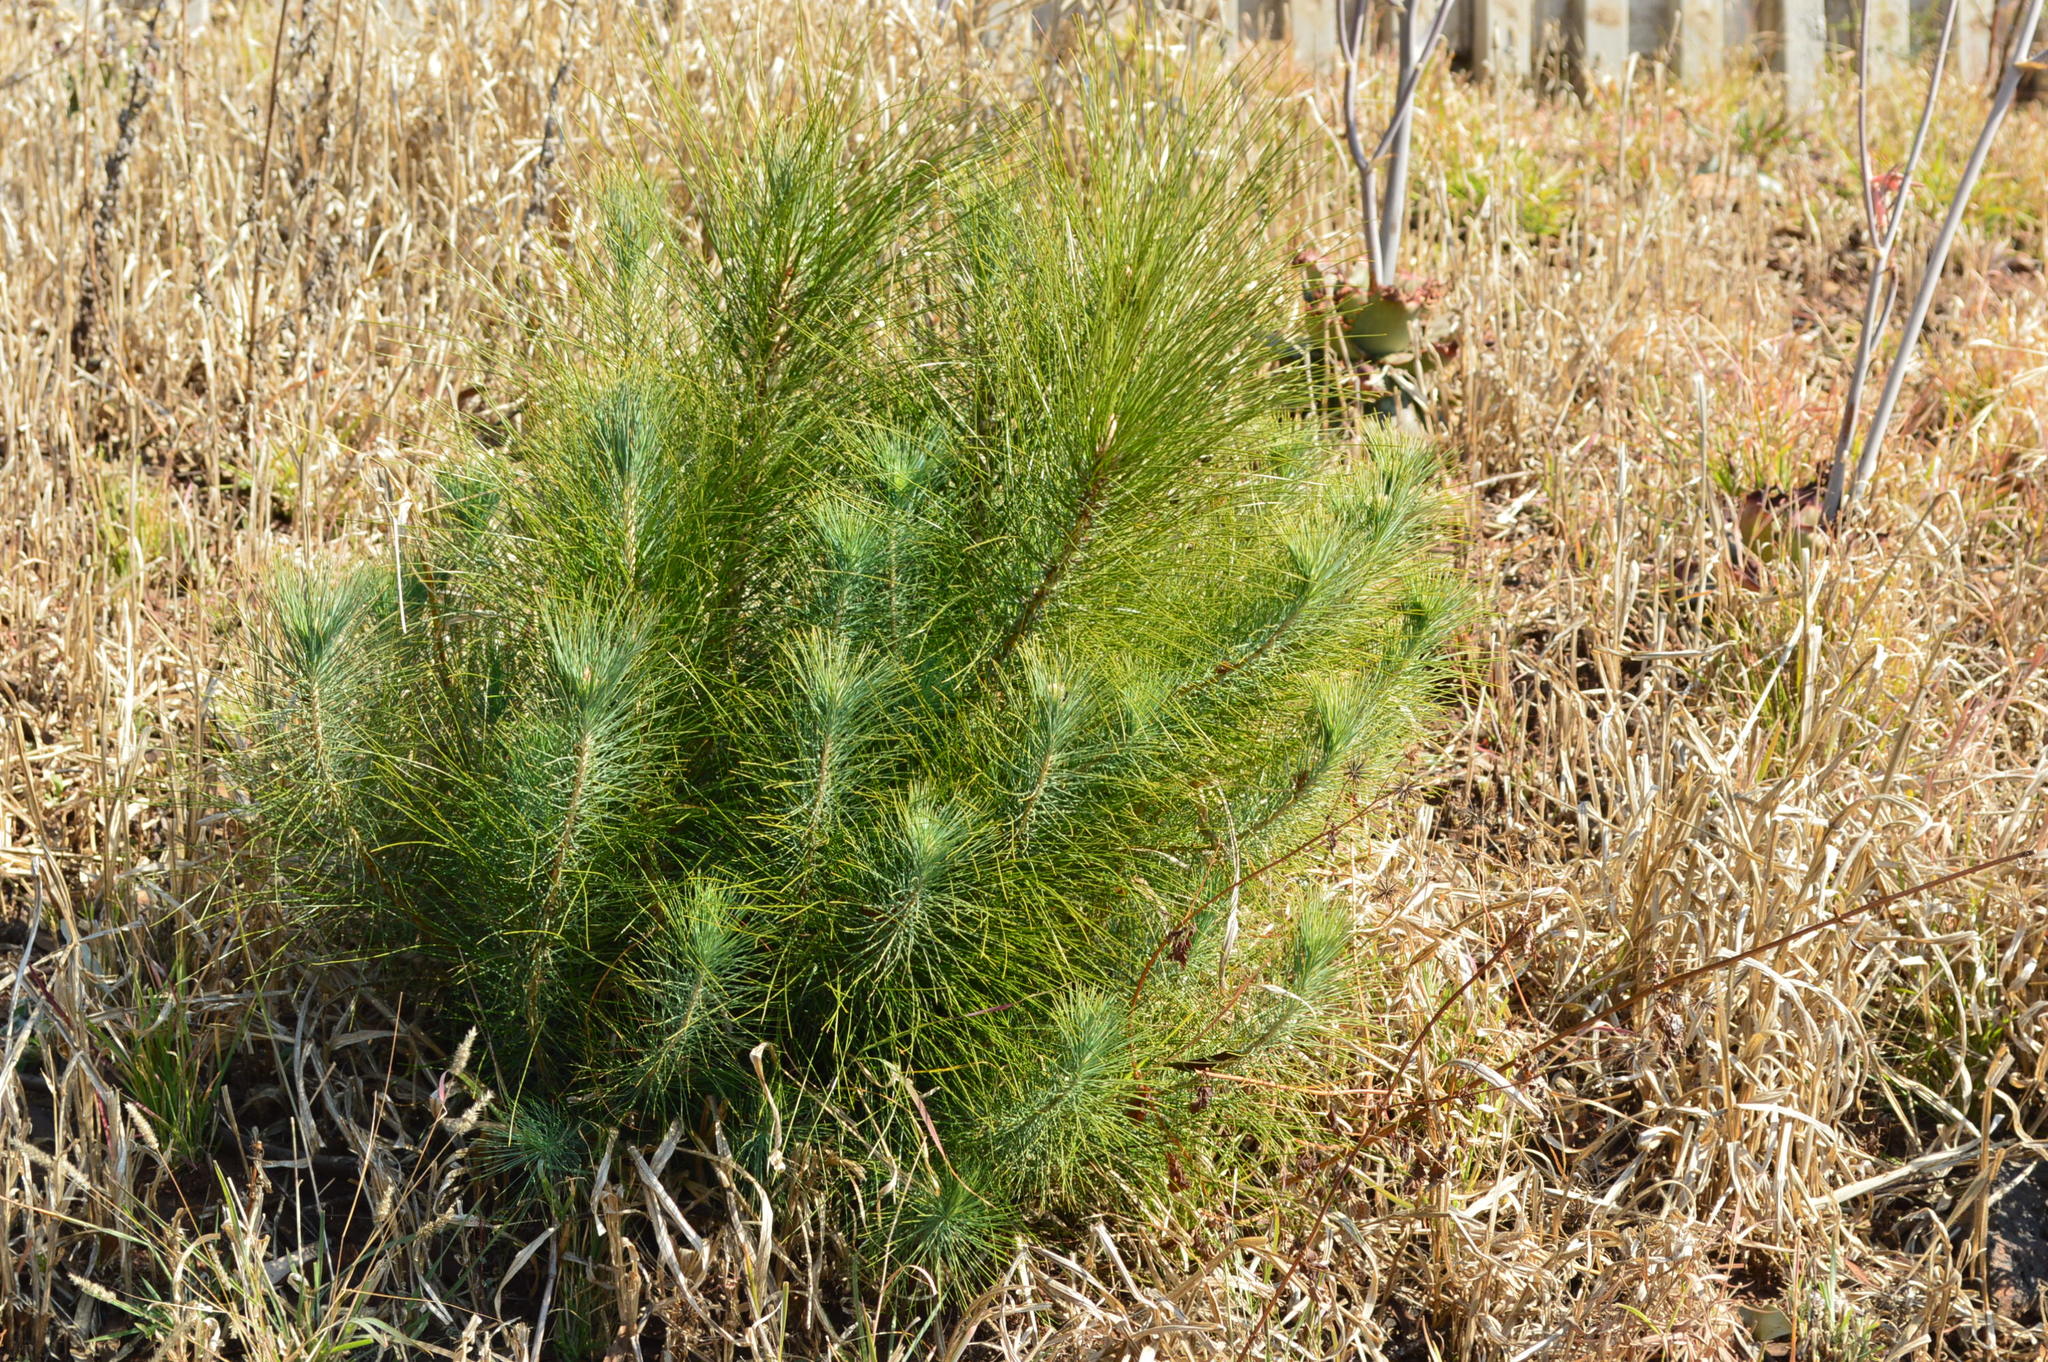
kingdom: Plantae
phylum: Tracheophyta
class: Pinopsida
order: Pinales
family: Pinaceae
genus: Pinus
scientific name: Pinus roxburghii
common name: Chir pine
